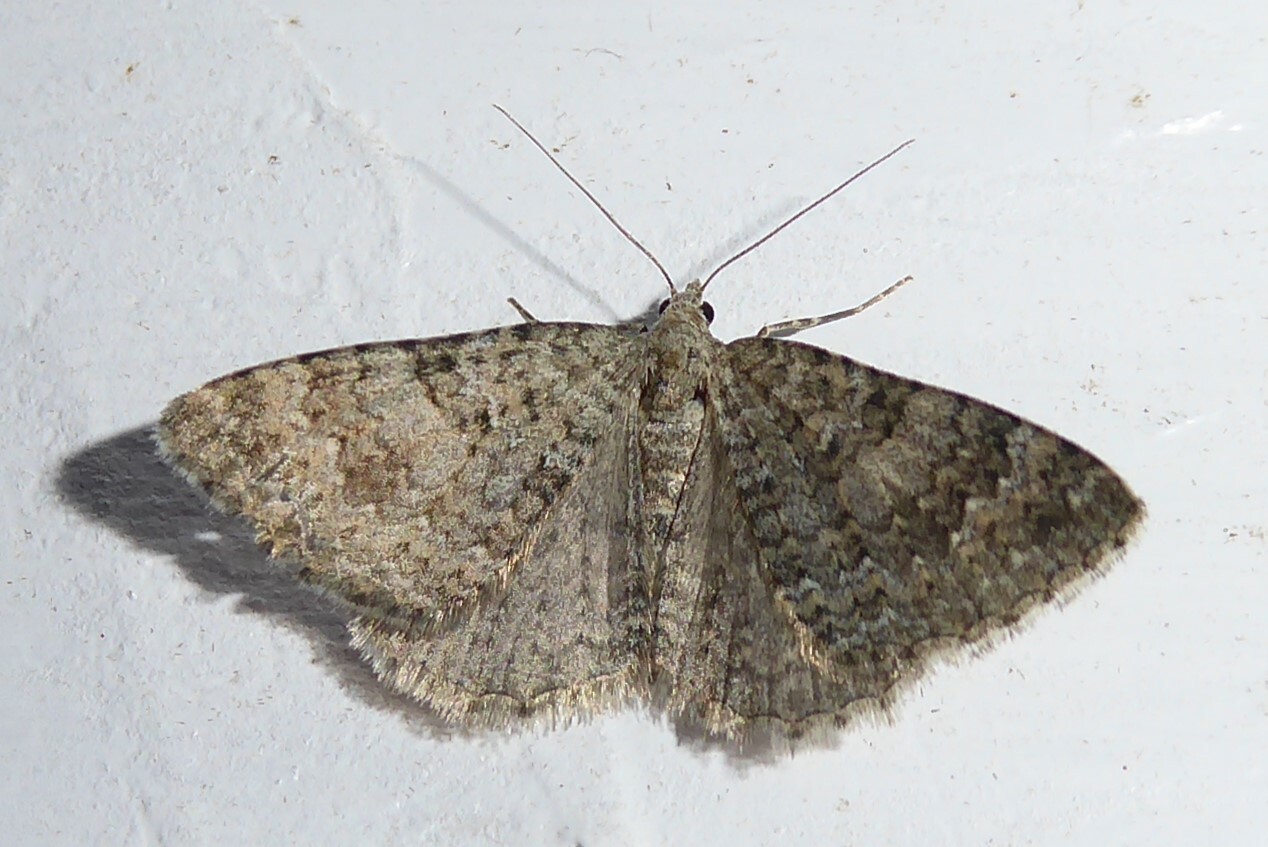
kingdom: Animalia
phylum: Arthropoda
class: Insecta
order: Lepidoptera
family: Geometridae
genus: Helastia
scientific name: Helastia corcularia
